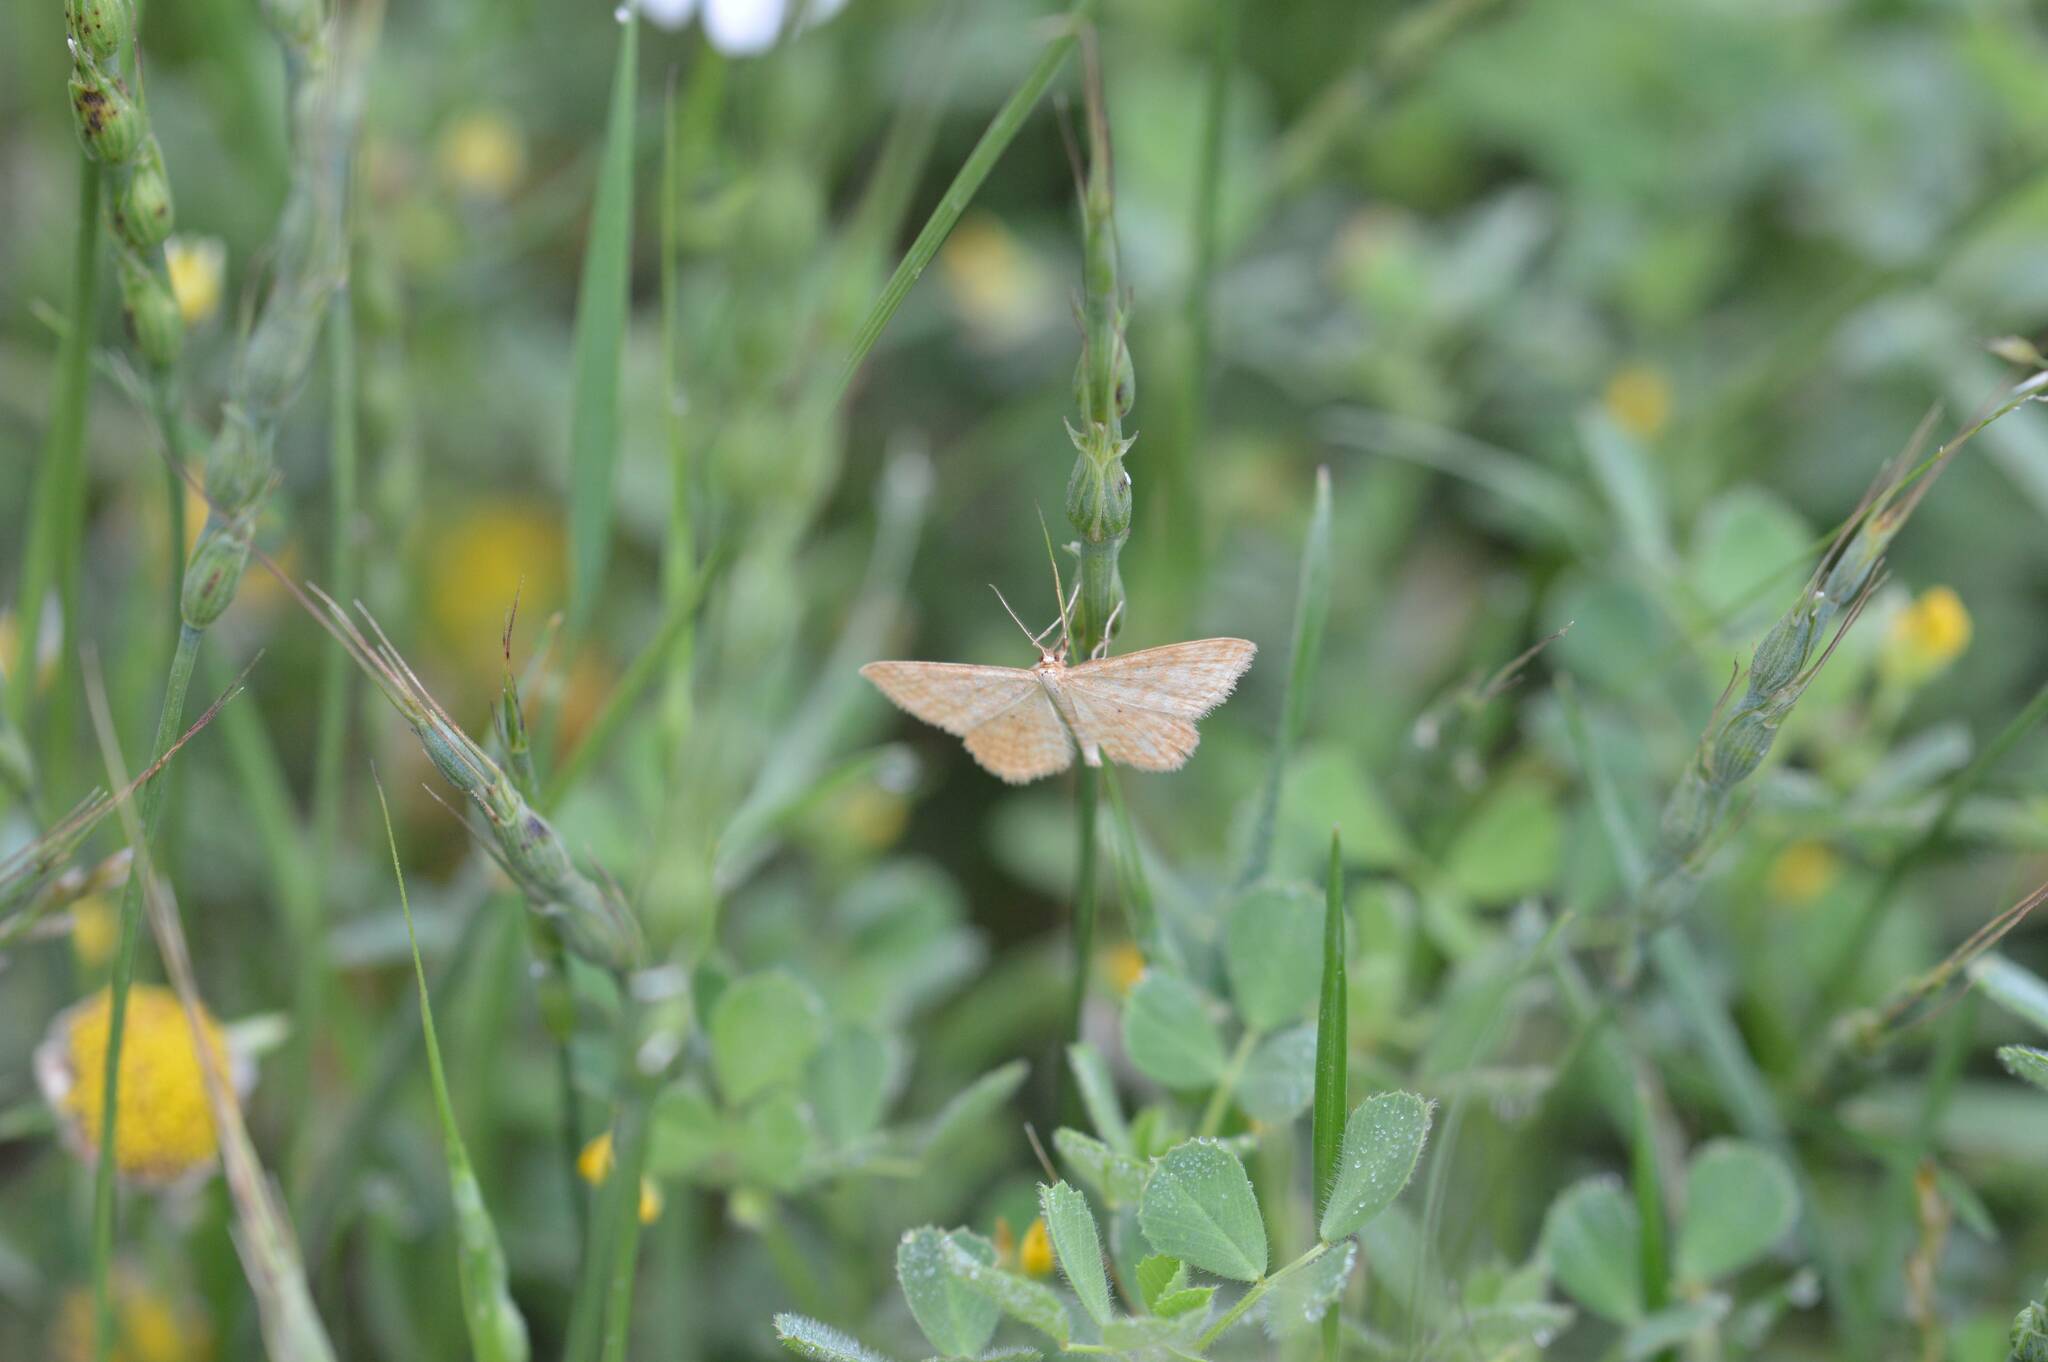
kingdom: Animalia
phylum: Arthropoda
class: Insecta
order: Lepidoptera
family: Geometridae
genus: Idaea
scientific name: Idaea ochrata
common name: Bright wave
